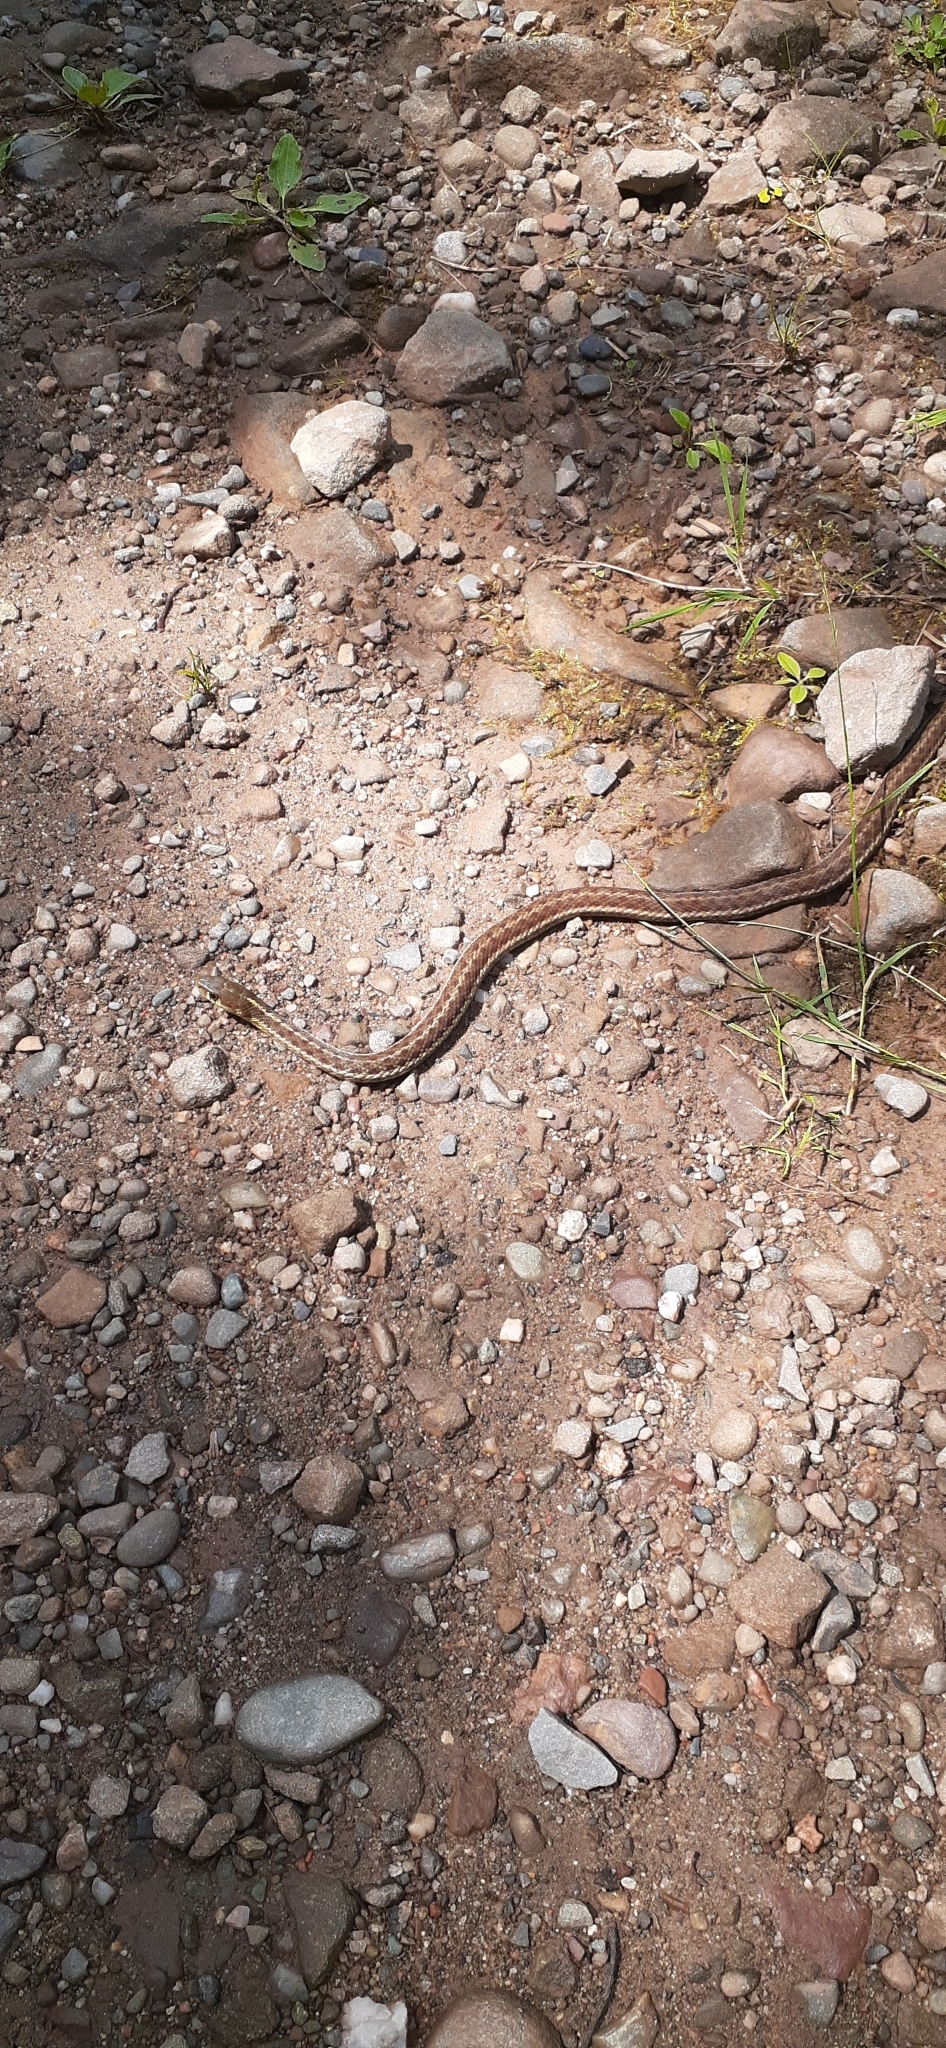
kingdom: Animalia
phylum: Chordata
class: Squamata
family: Colubridae
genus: Thamnophis
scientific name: Thamnophis sirtalis
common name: Common garter snake
